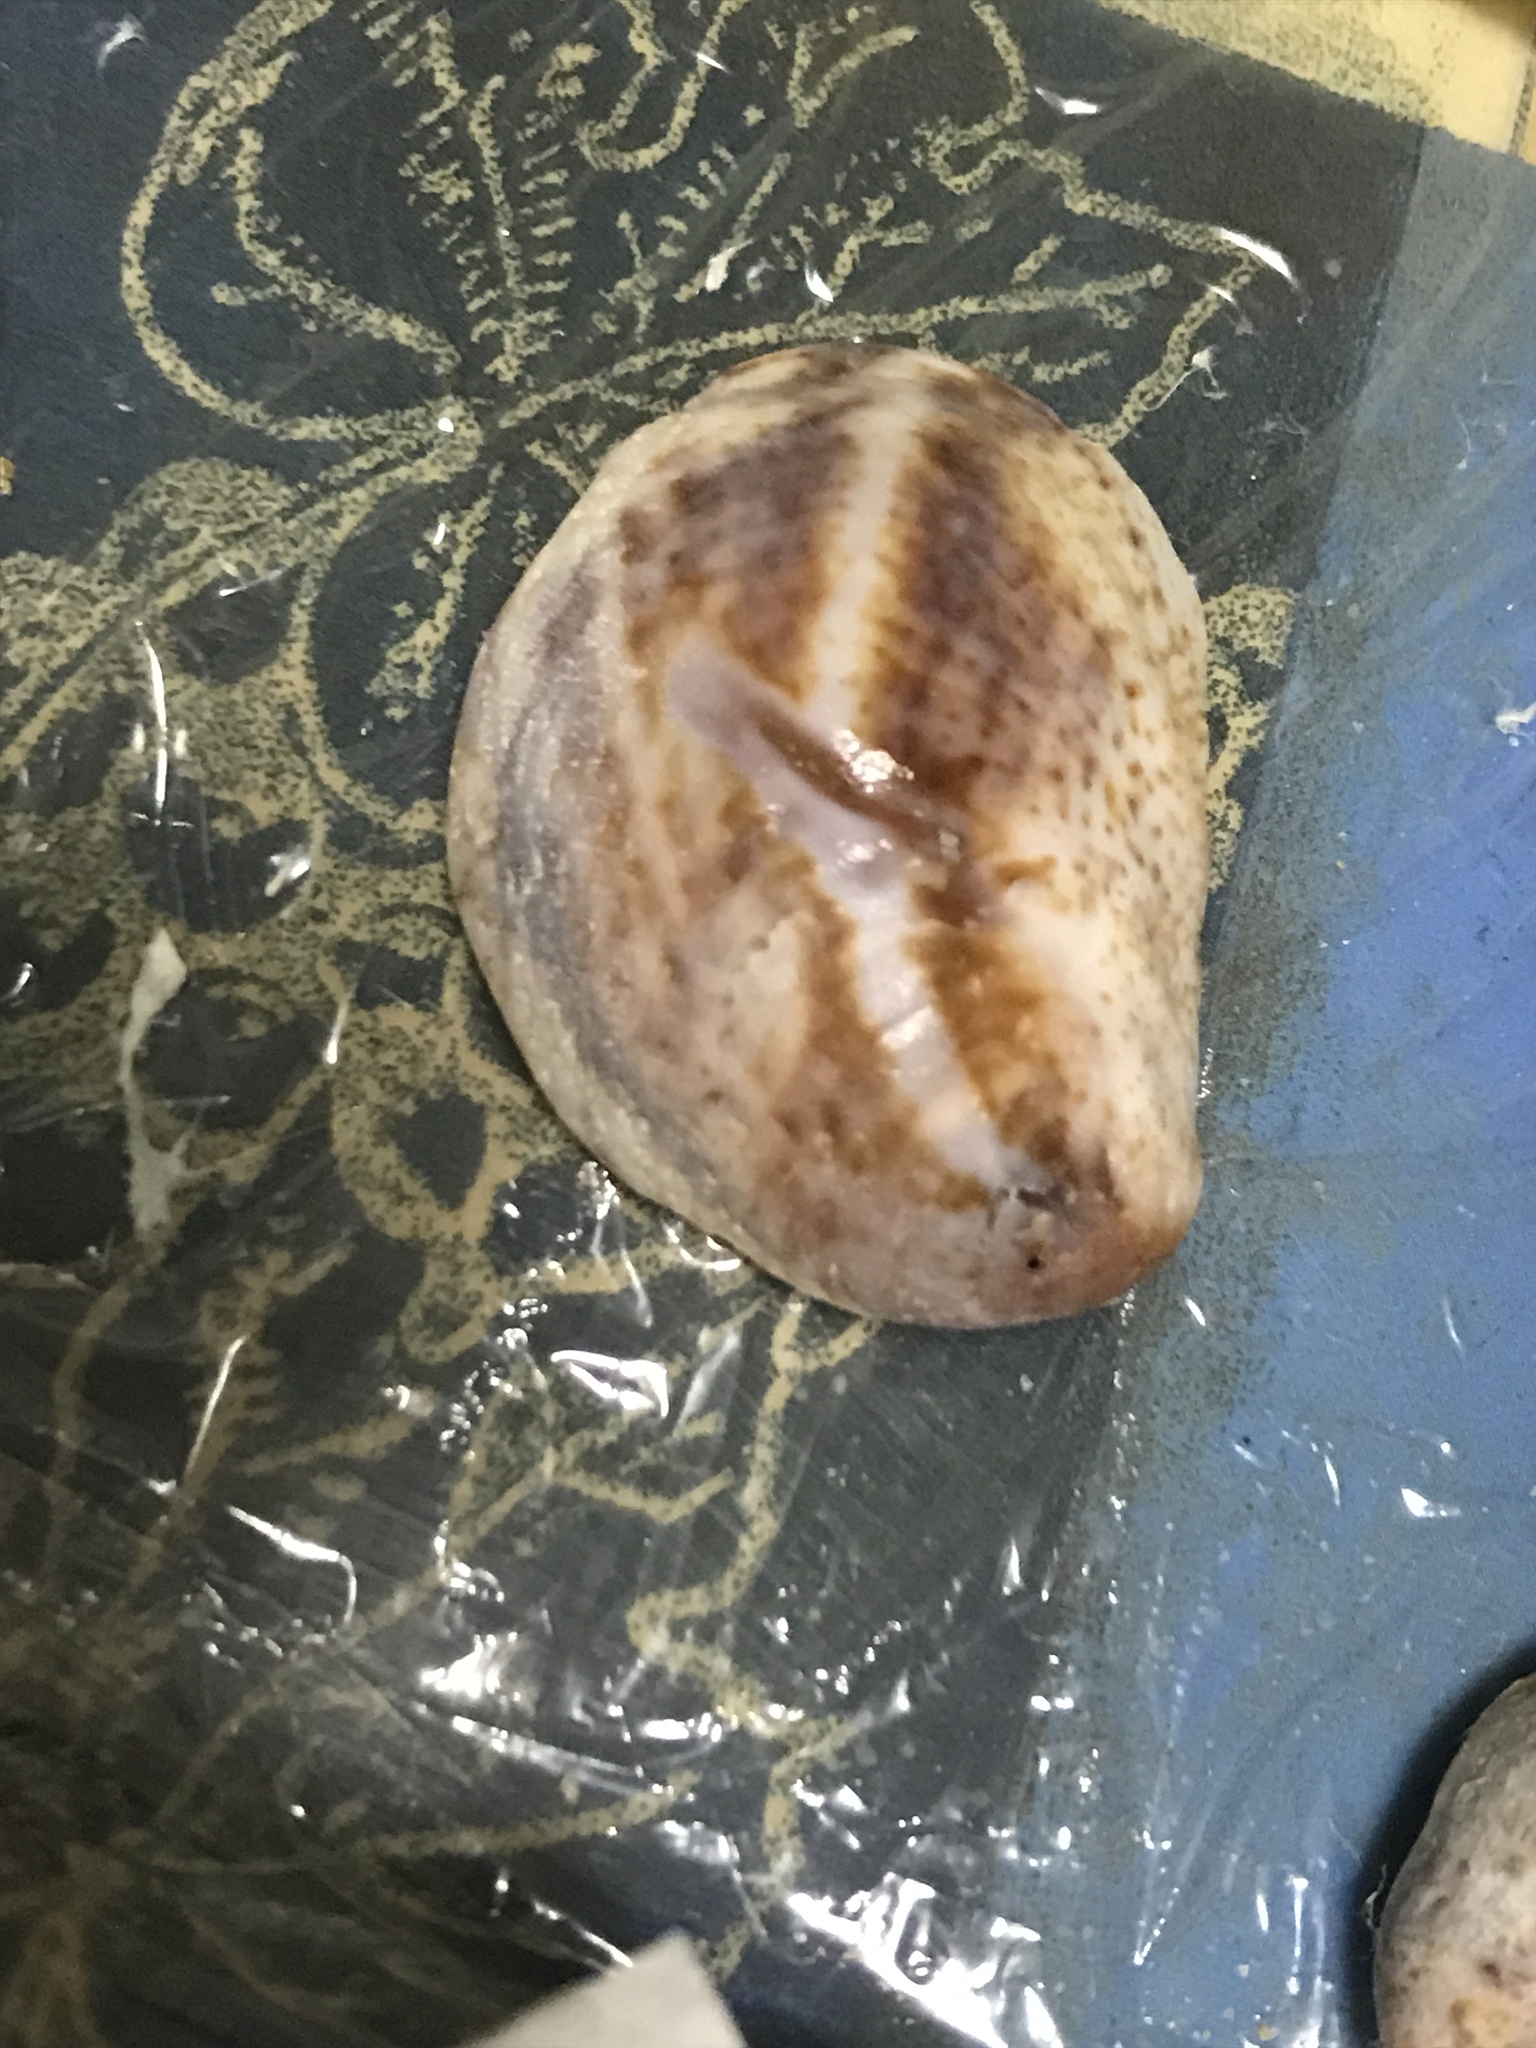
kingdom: Animalia
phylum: Mollusca
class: Gastropoda
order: Littorinimorpha
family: Calyptraeidae
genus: Crepidula
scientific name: Crepidula fornicata
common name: Slipper limpet
